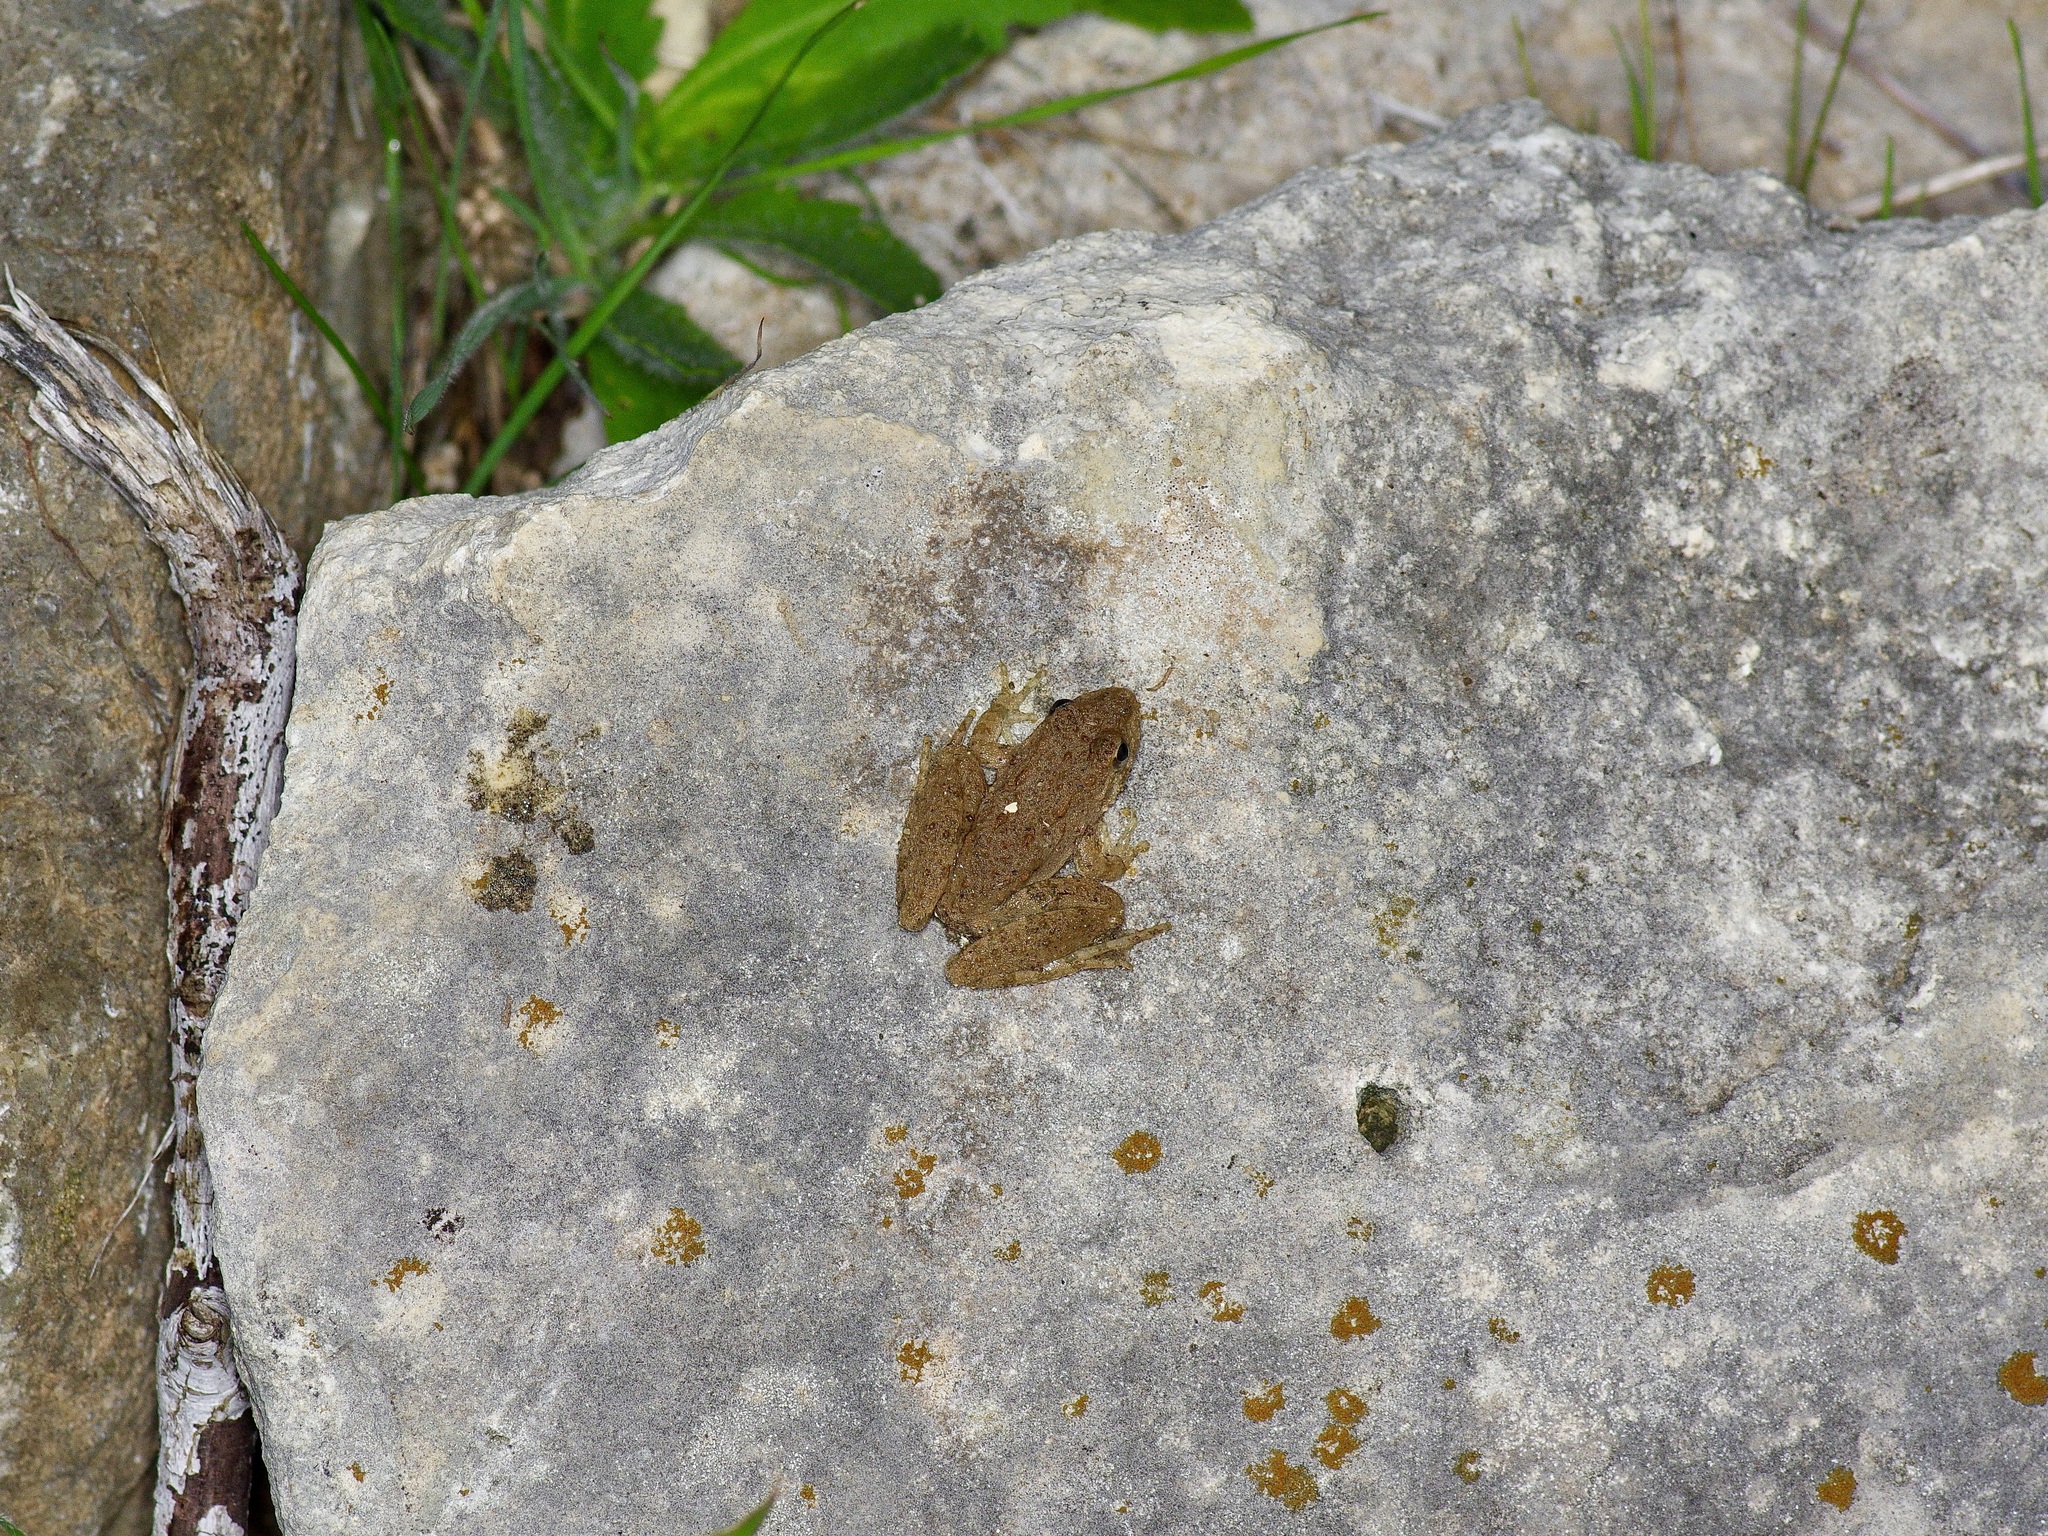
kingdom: Animalia
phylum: Chordata
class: Amphibia
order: Anura
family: Hylidae
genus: Acris
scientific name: Acris blanchardi
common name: Blanchard's cricket frog
